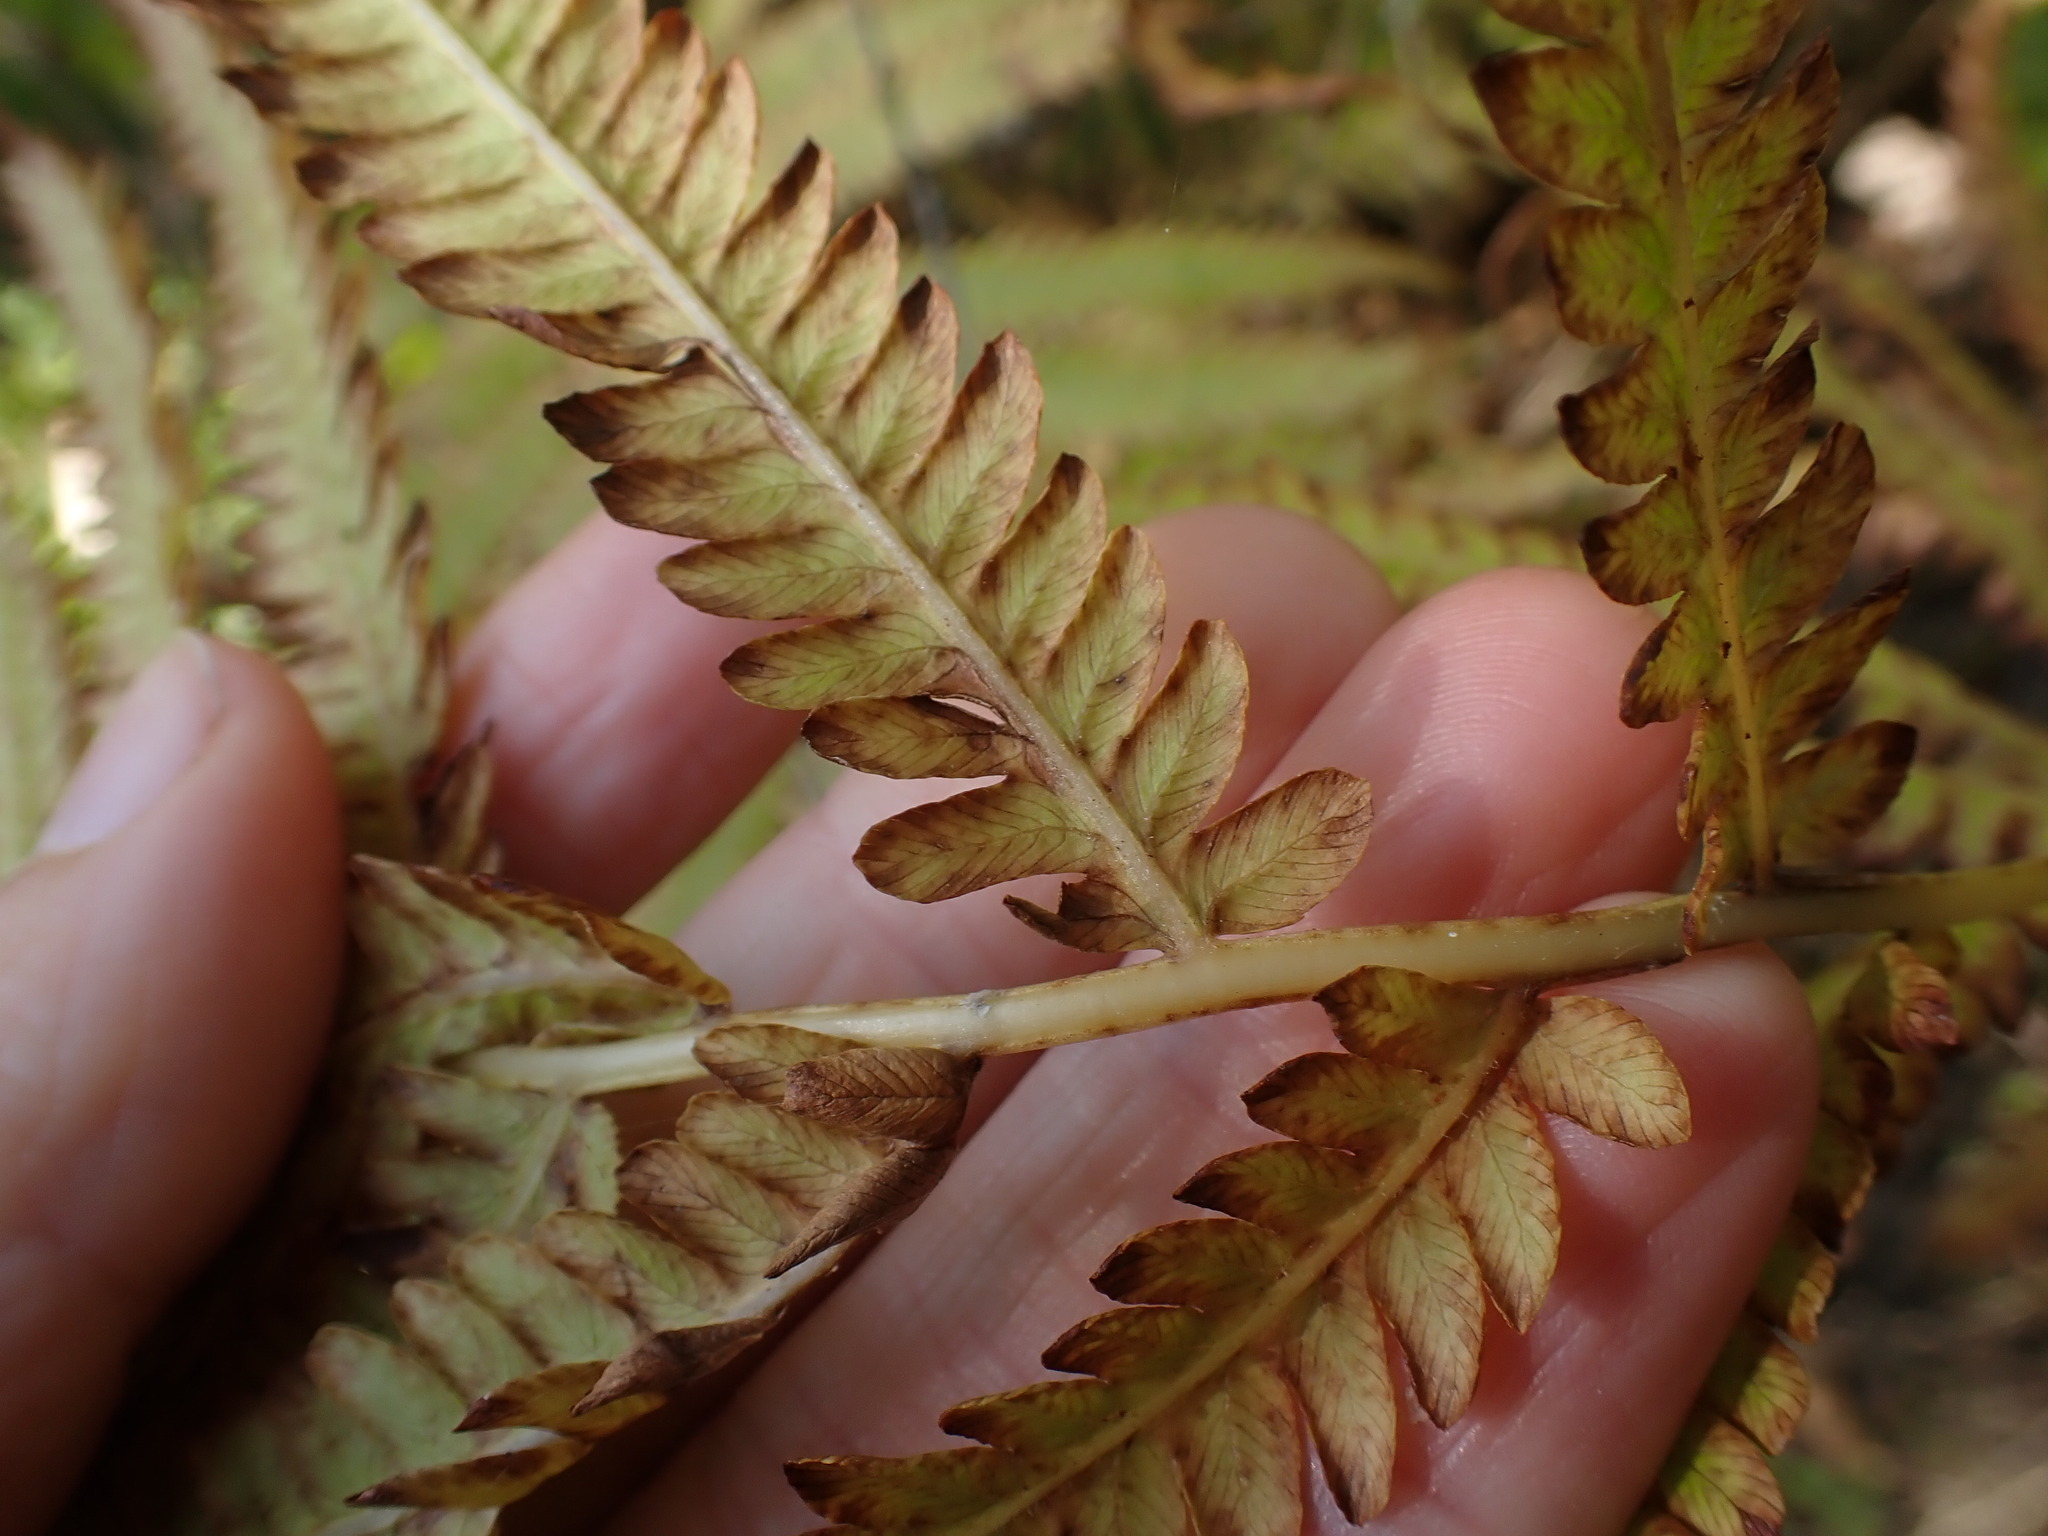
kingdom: Plantae
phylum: Tracheophyta
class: Polypodiopsida
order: Polypodiales
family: Onocleaceae
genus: Matteuccia
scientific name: Matteuccia struthiopteris
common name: Ostrich fern
